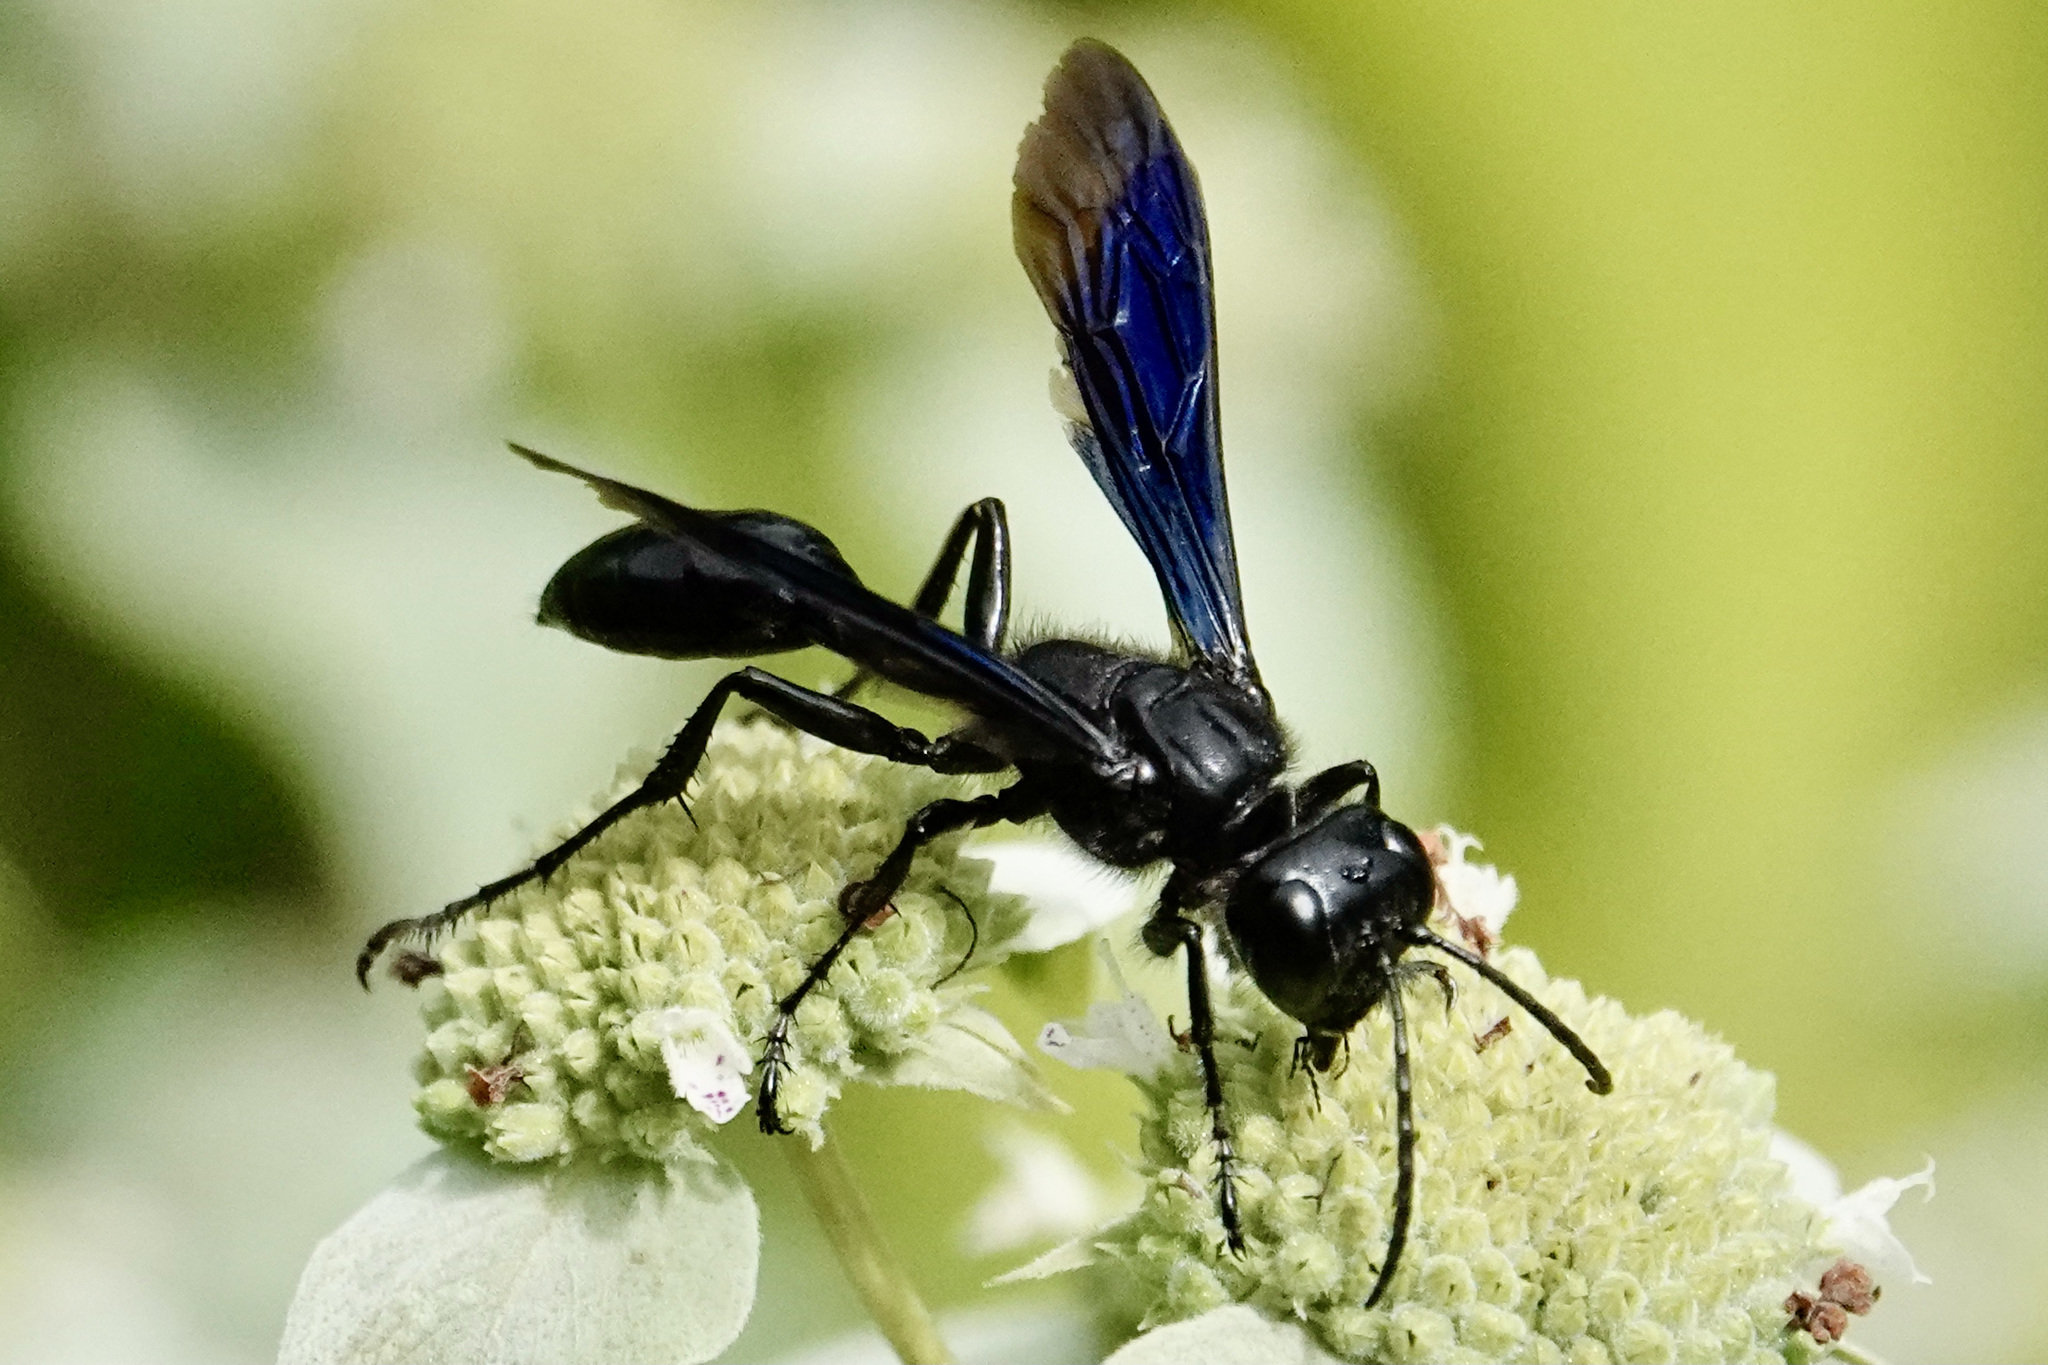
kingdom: Animalia
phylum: Arthropoda
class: Insecta
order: Hymenoptera
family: Sphecidae
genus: Isodontia
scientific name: Isodontia philadelphica
